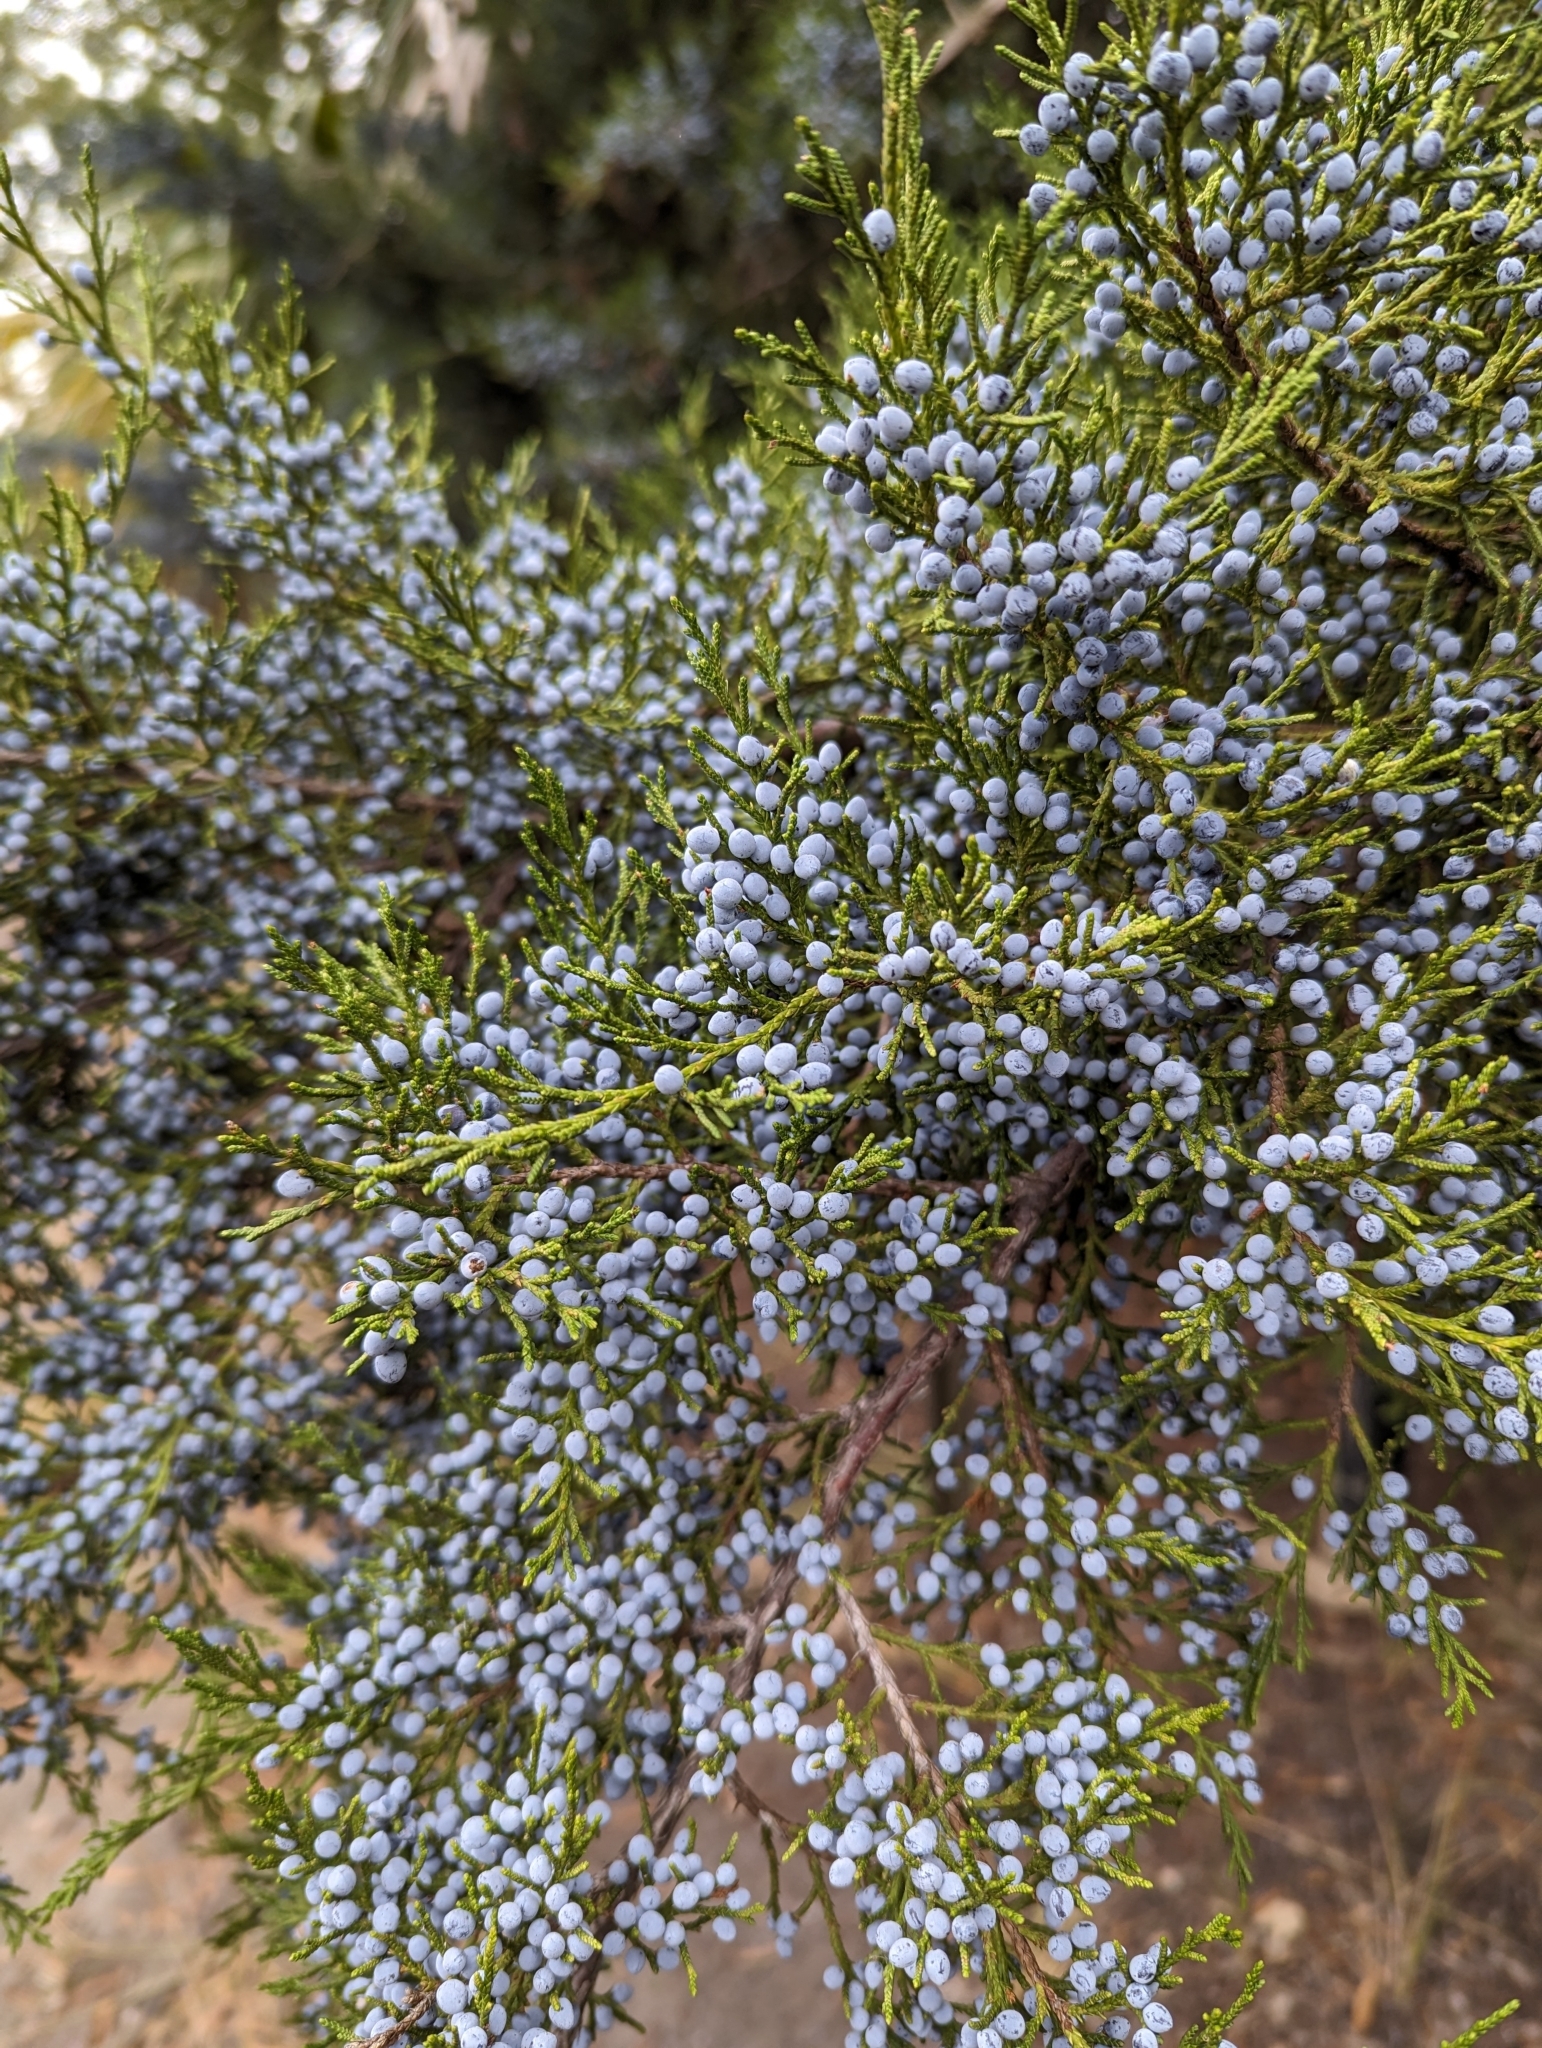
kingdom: Plantae
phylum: Tracheophyta
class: Pinopsida
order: Pinales
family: Cupressaceae
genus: Juniperus
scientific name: Juniperus virginiana
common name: Red juniper
